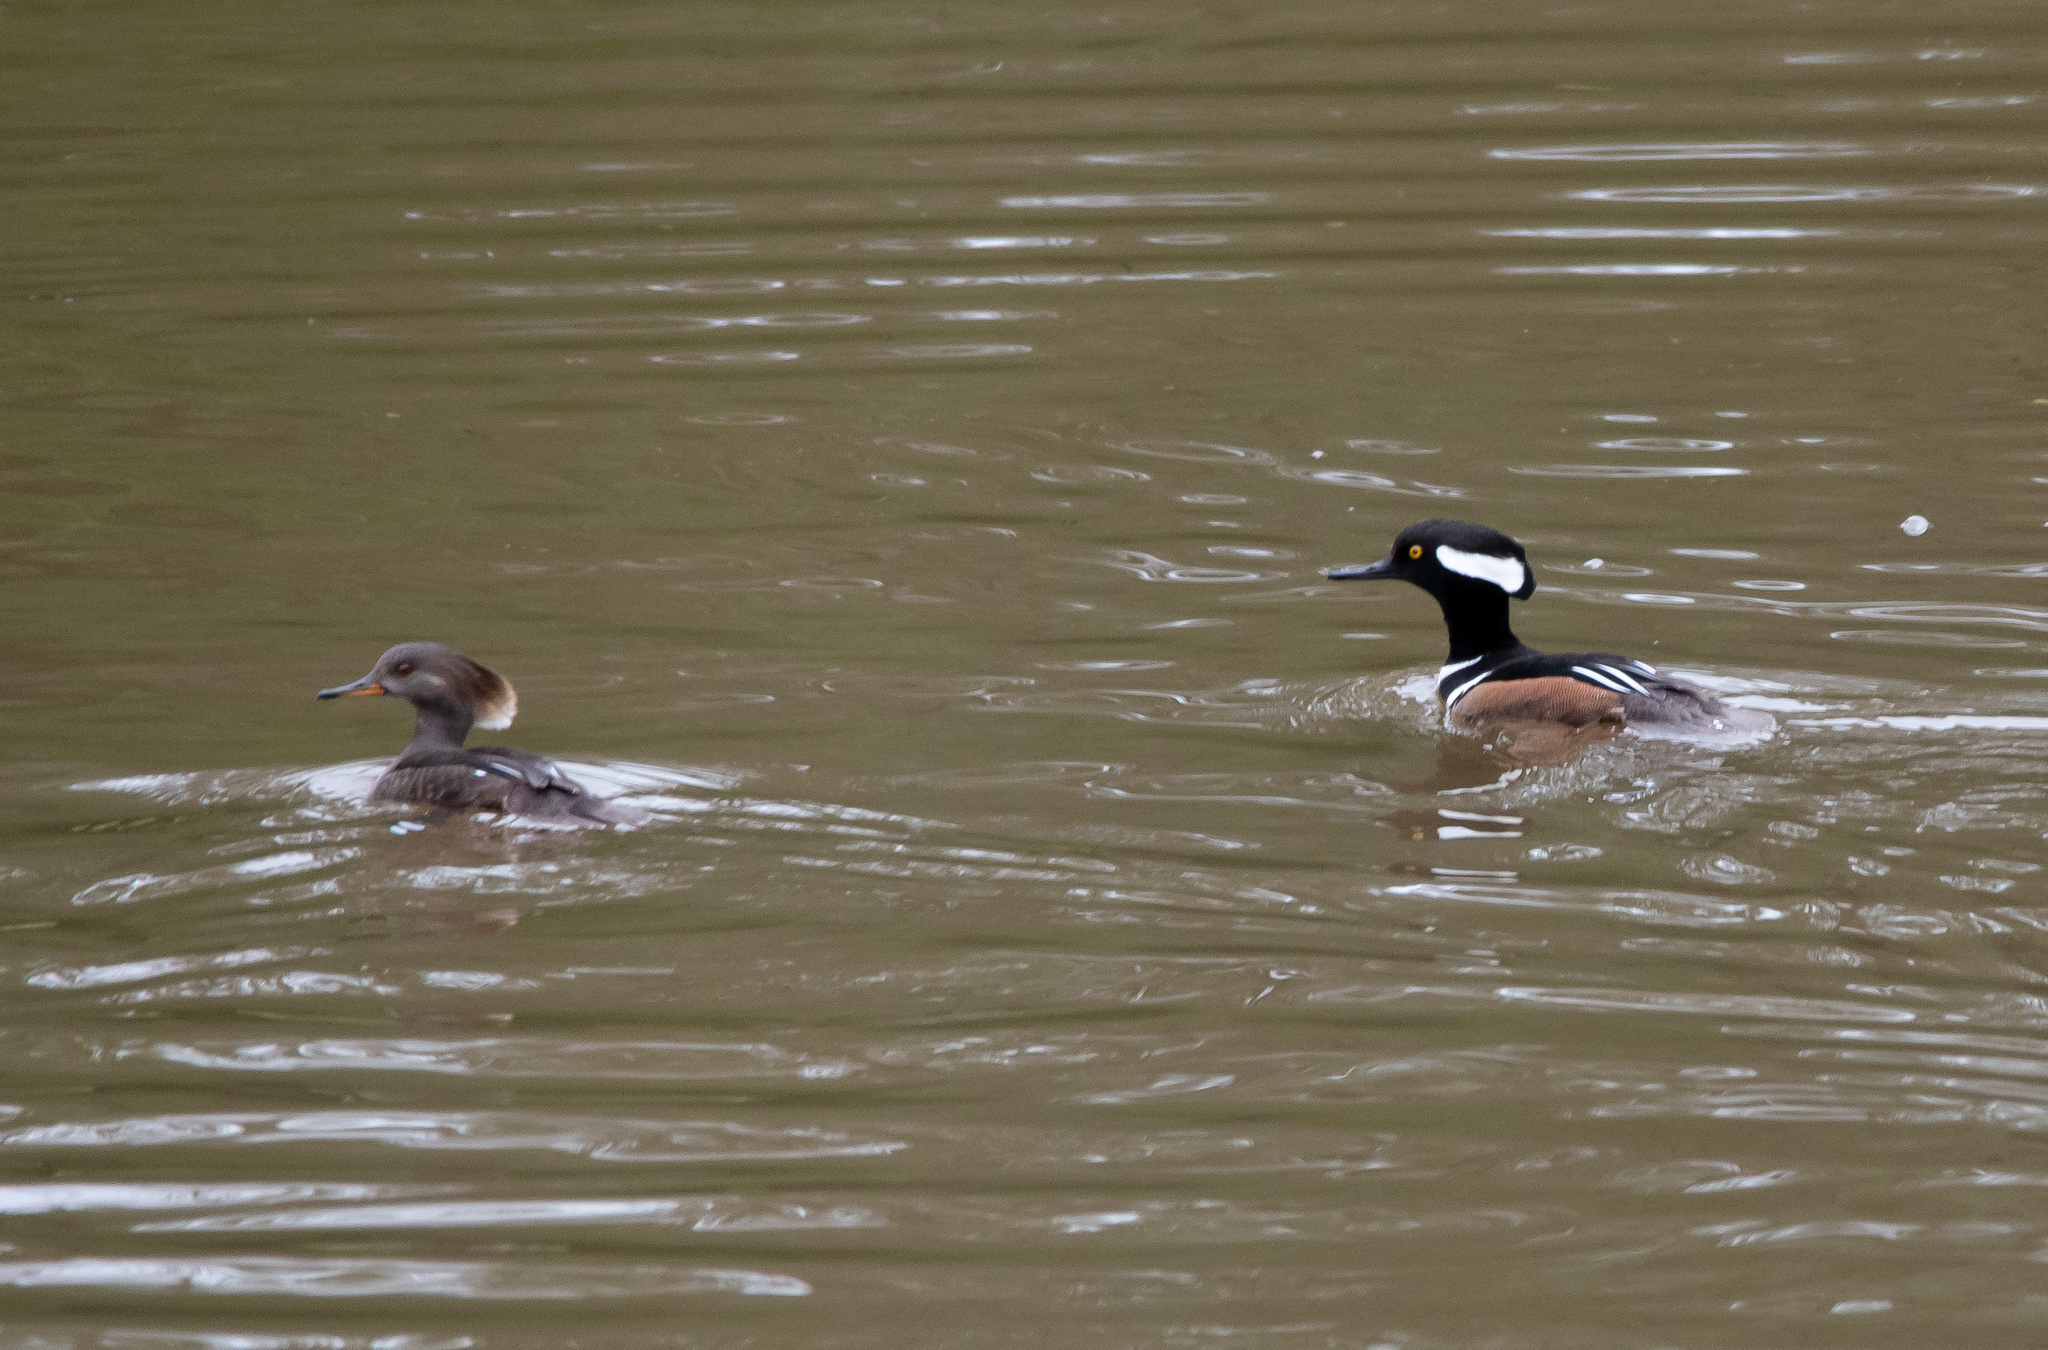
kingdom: Animalia
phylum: Chordata
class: Aves
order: Anseriformes
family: Anatidae
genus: Lophodytes
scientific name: Lophodytes cucullatus
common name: Hooded merganser
